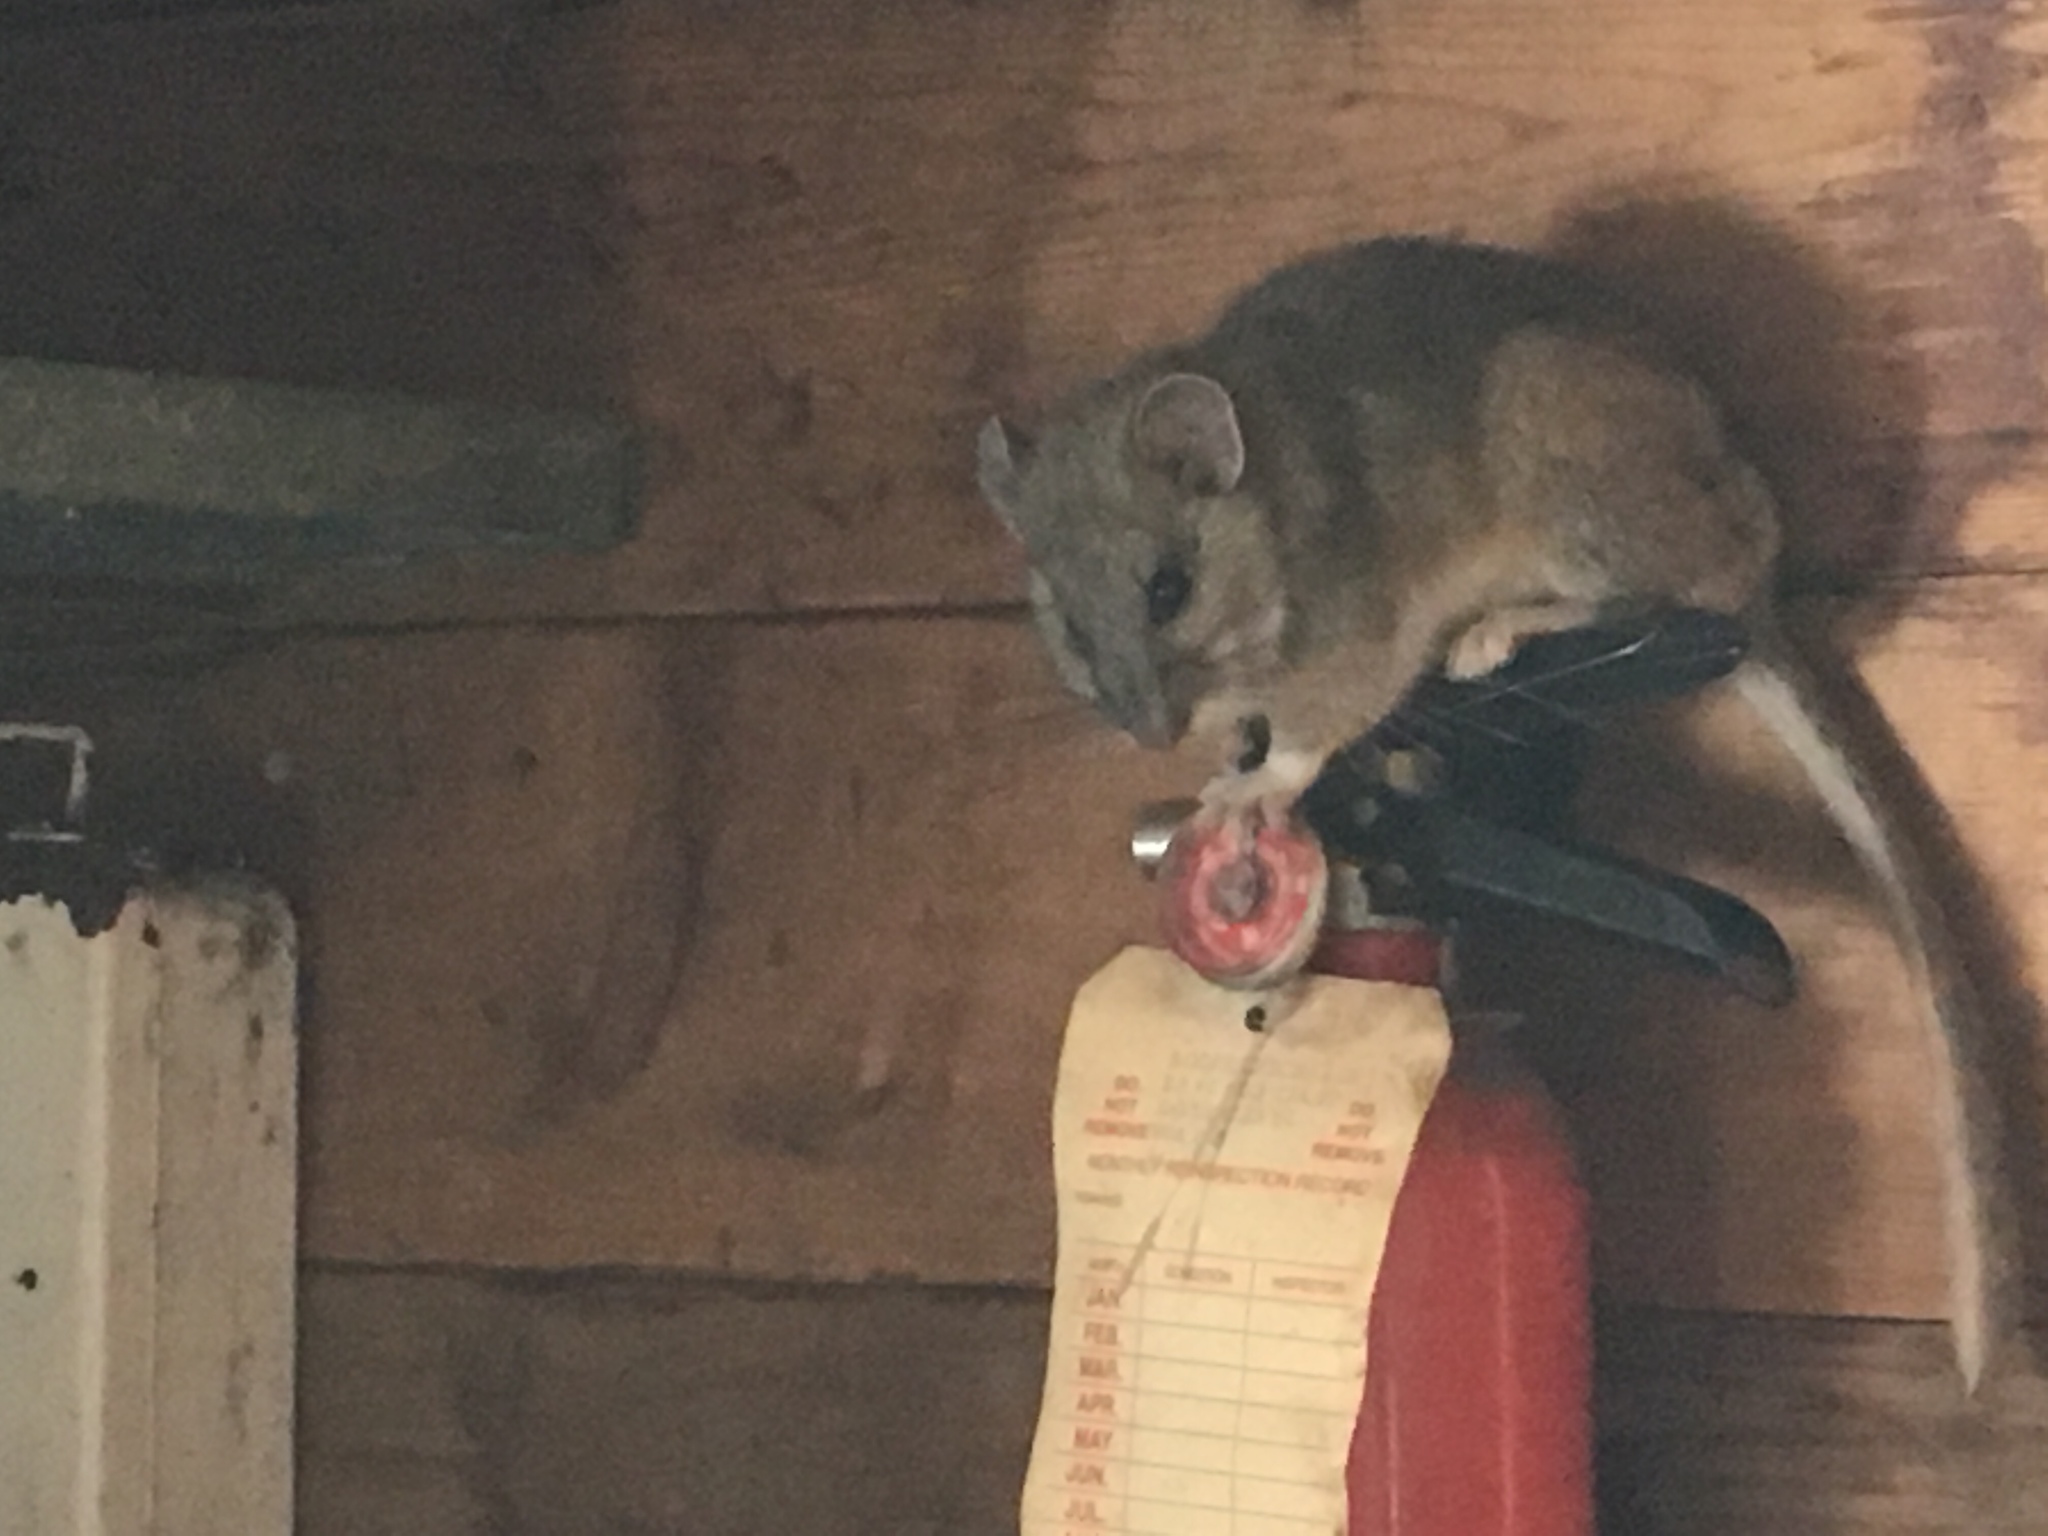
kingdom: Animalia
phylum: Chordata
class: Mammalia
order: Rodentia
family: Cricetidae
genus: Neotoma
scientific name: Neotoma cinerea
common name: Bushy-tailed woodrat
